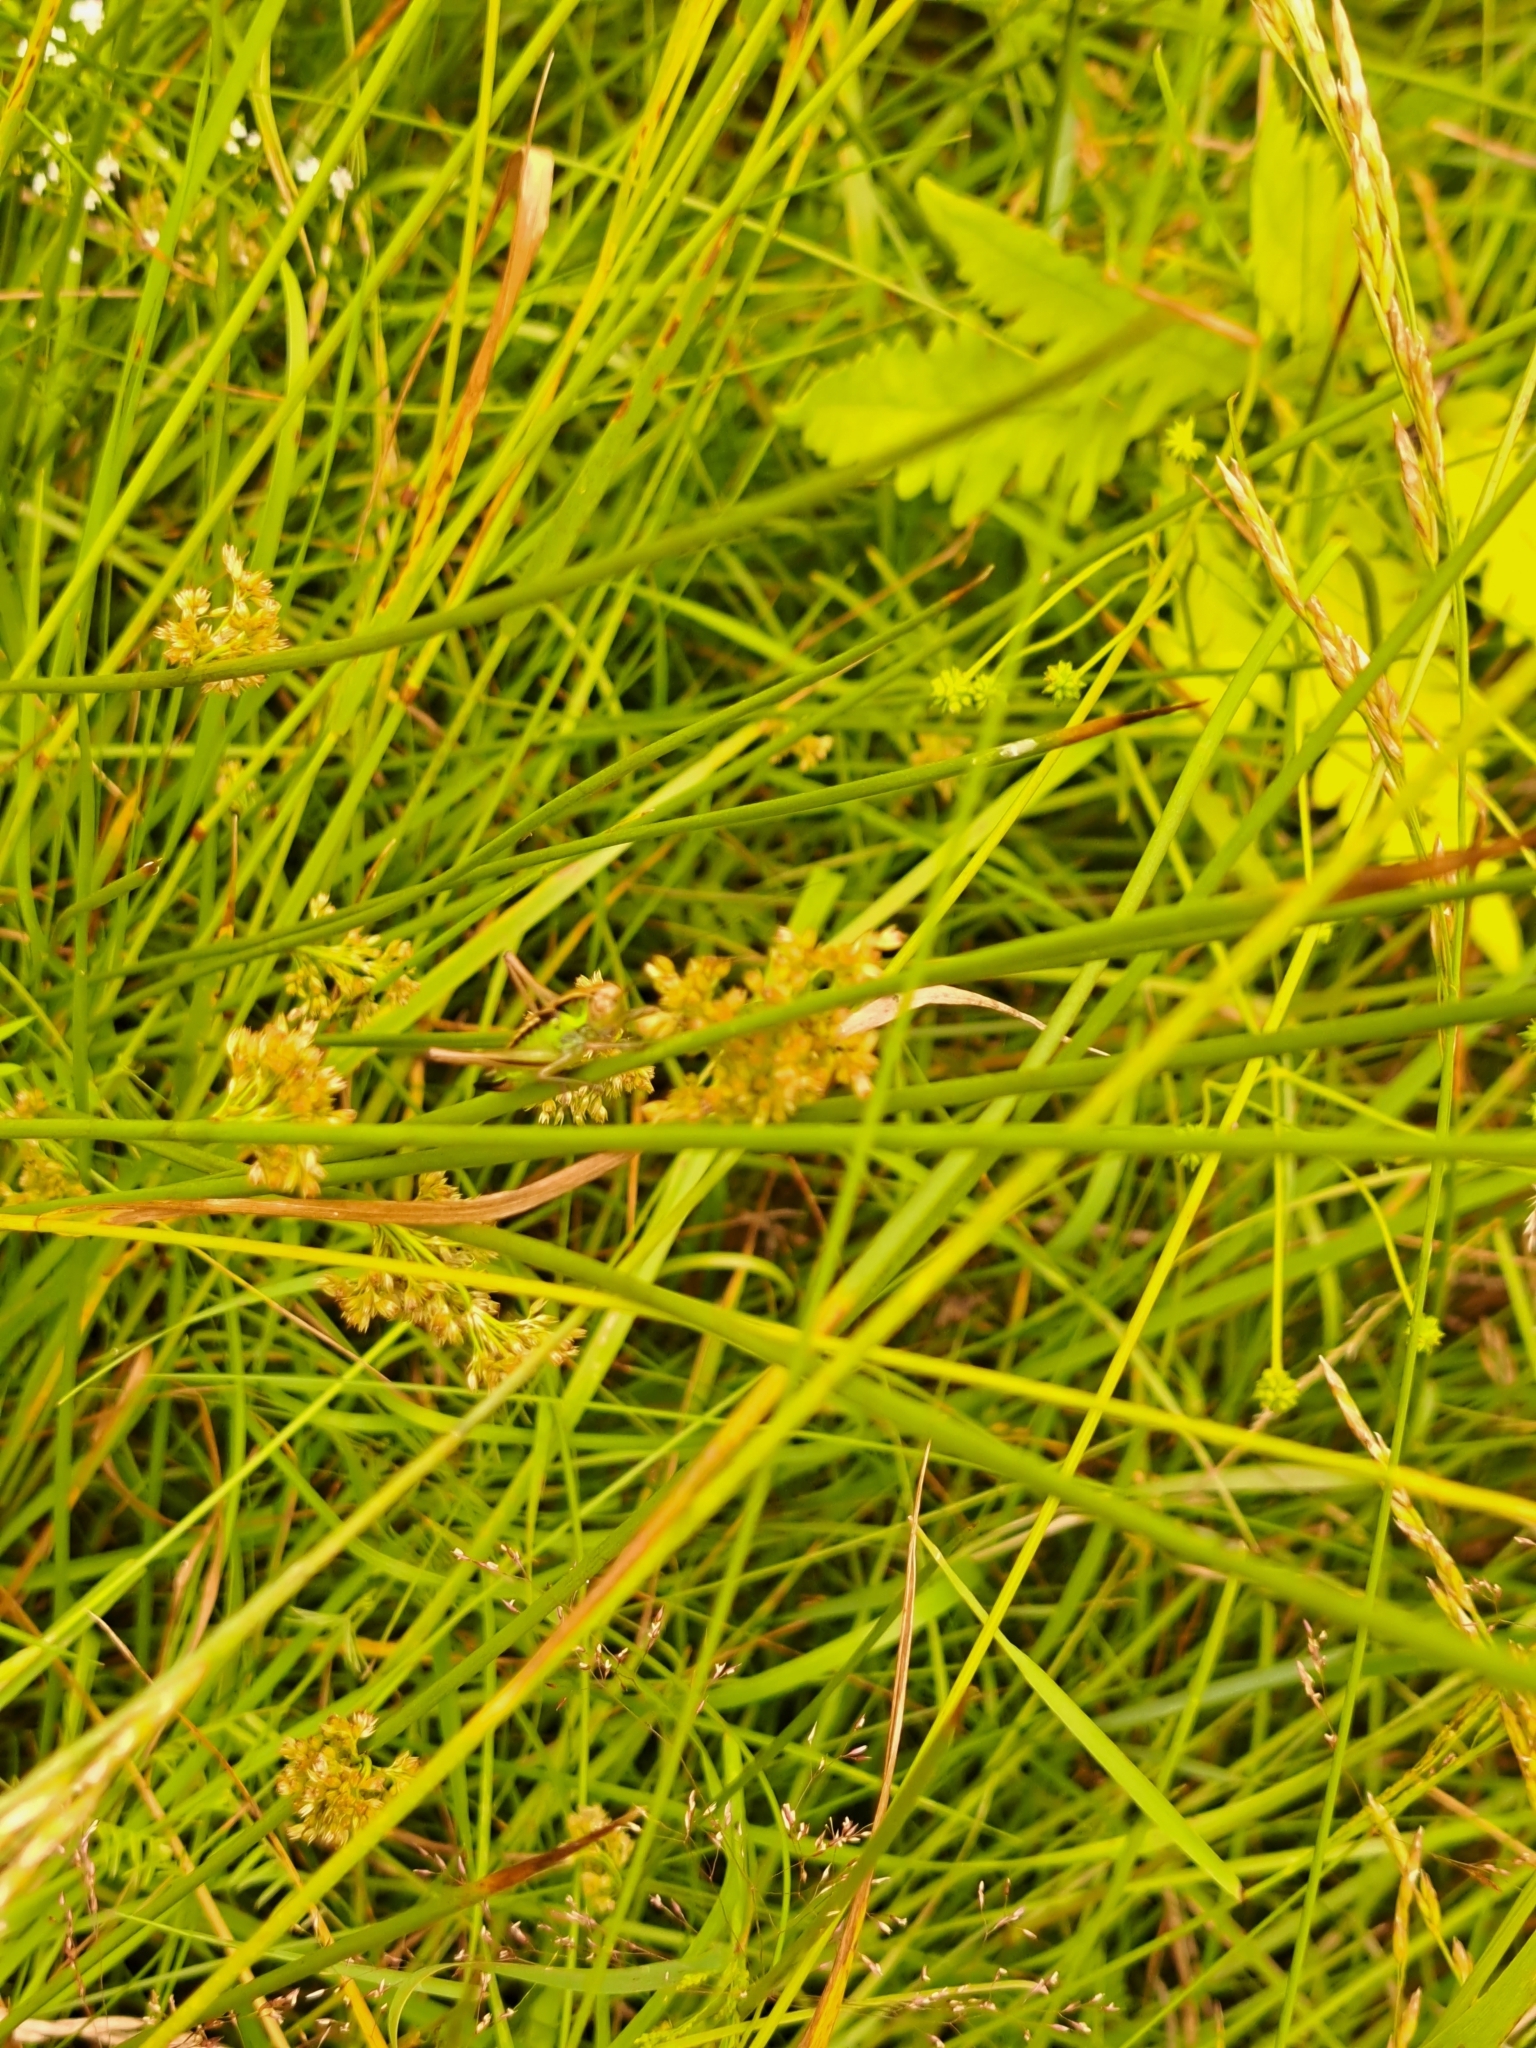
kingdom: Animalia
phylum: Arthropoda
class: Insecta
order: Orthoptera
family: Tettigoniidae
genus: Roeseliana
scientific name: Roeseliana roeselii
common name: Roesel's bush cricket
